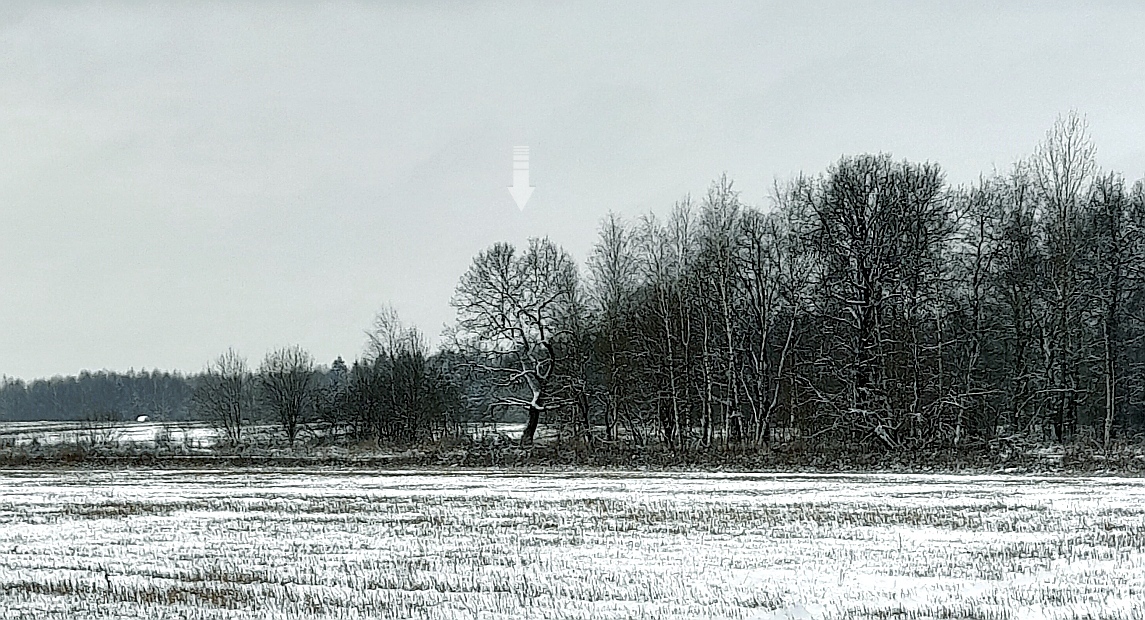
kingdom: Plantae
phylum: Tracheophyta
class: Magnoliopsida
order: Fagales
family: Fagaceae
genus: Quercus
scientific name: Quercus robur
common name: Pedunculate oak
